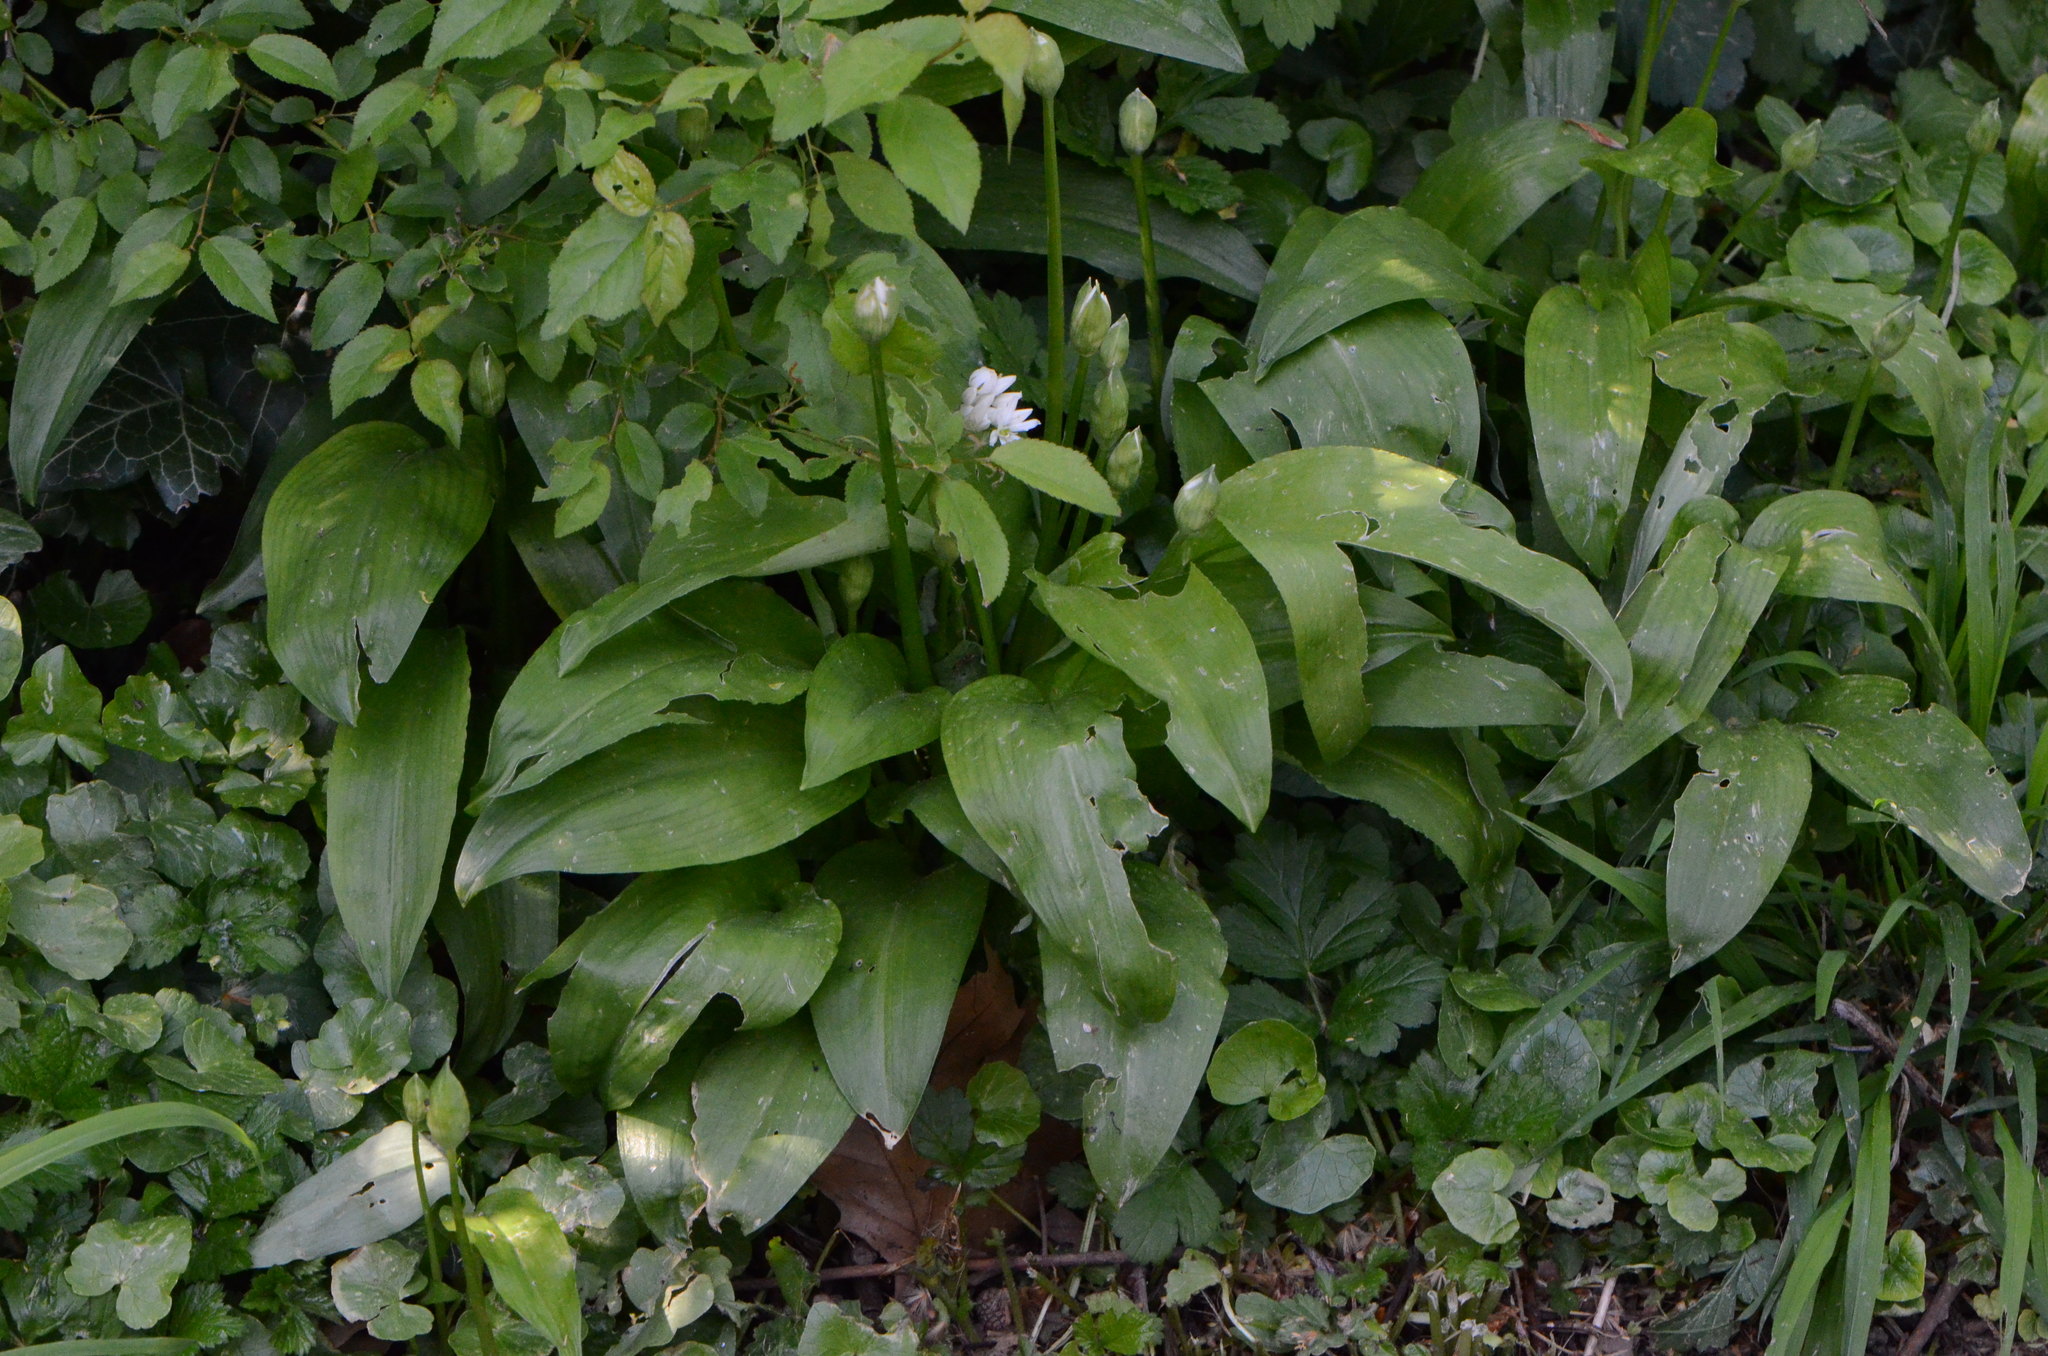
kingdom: Plantae
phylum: Tracheophyta
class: Liliopsida
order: Asparagales
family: Amaryllidaceae
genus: Allium
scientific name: Allium ursinum
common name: Ramsons
